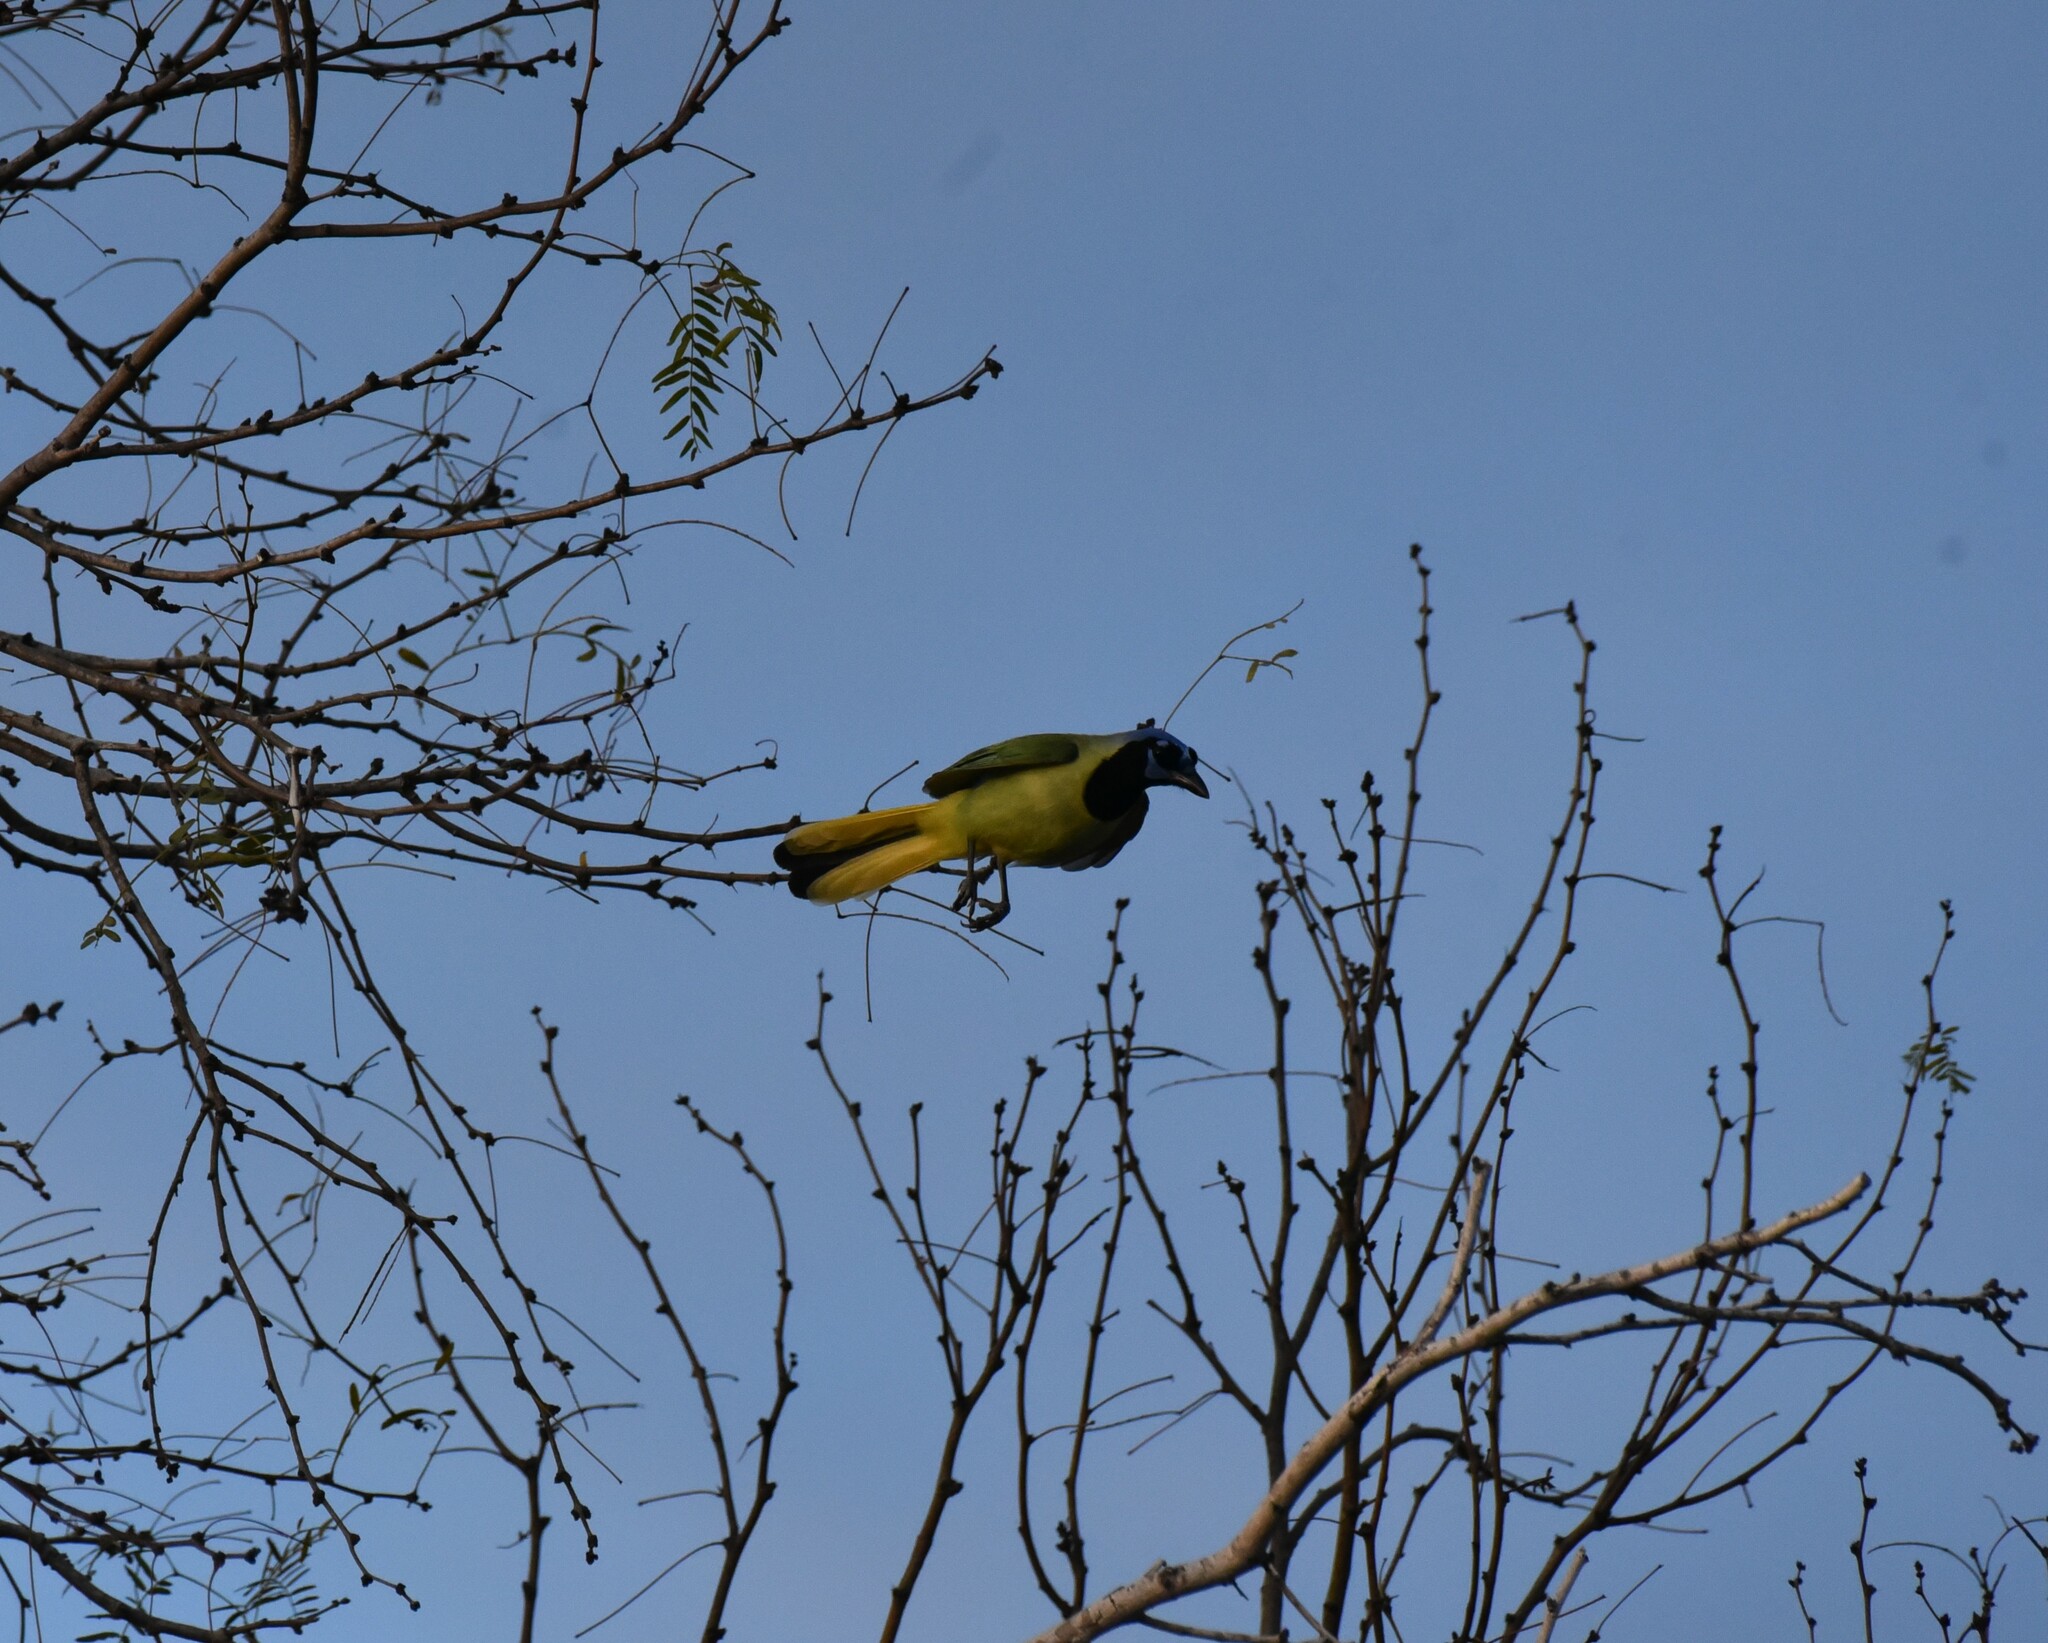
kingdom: Animalia
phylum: Chordata
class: Aves
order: Passeriformes
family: Corvidae
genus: Cyanocorax
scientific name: Cyanocorax yncas
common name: Green jay
